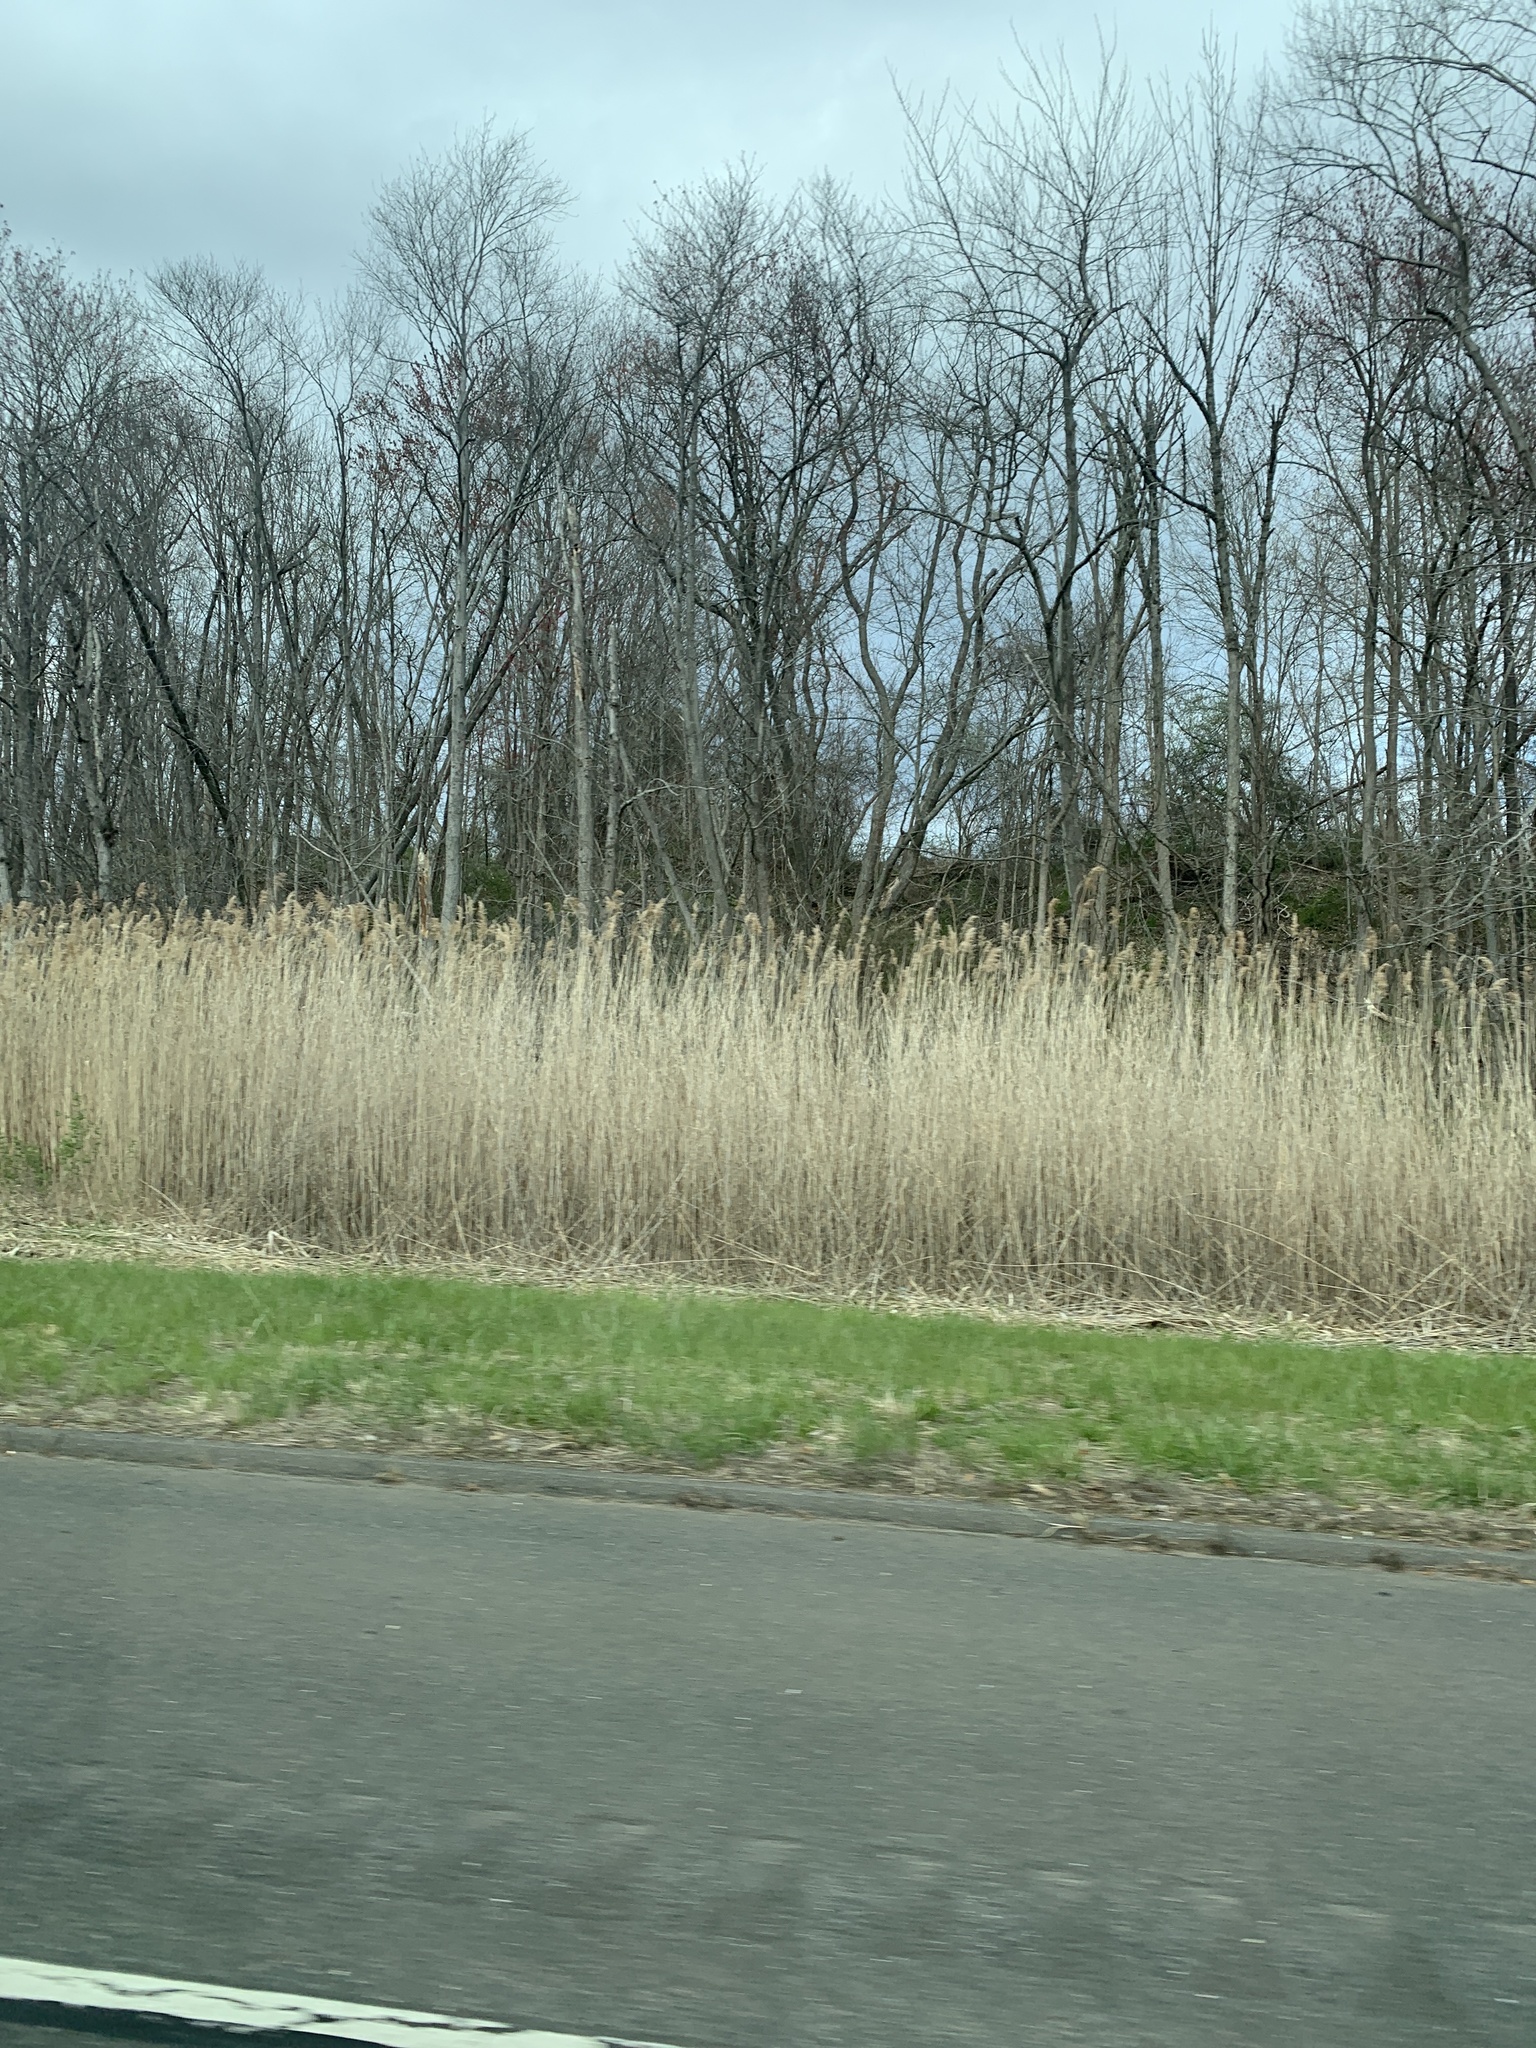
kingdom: Plantae
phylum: Tracheophyta
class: Liliopsida
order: Poales
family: Poaceae
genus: Phragmites
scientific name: Phragmites australis
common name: Common reed
